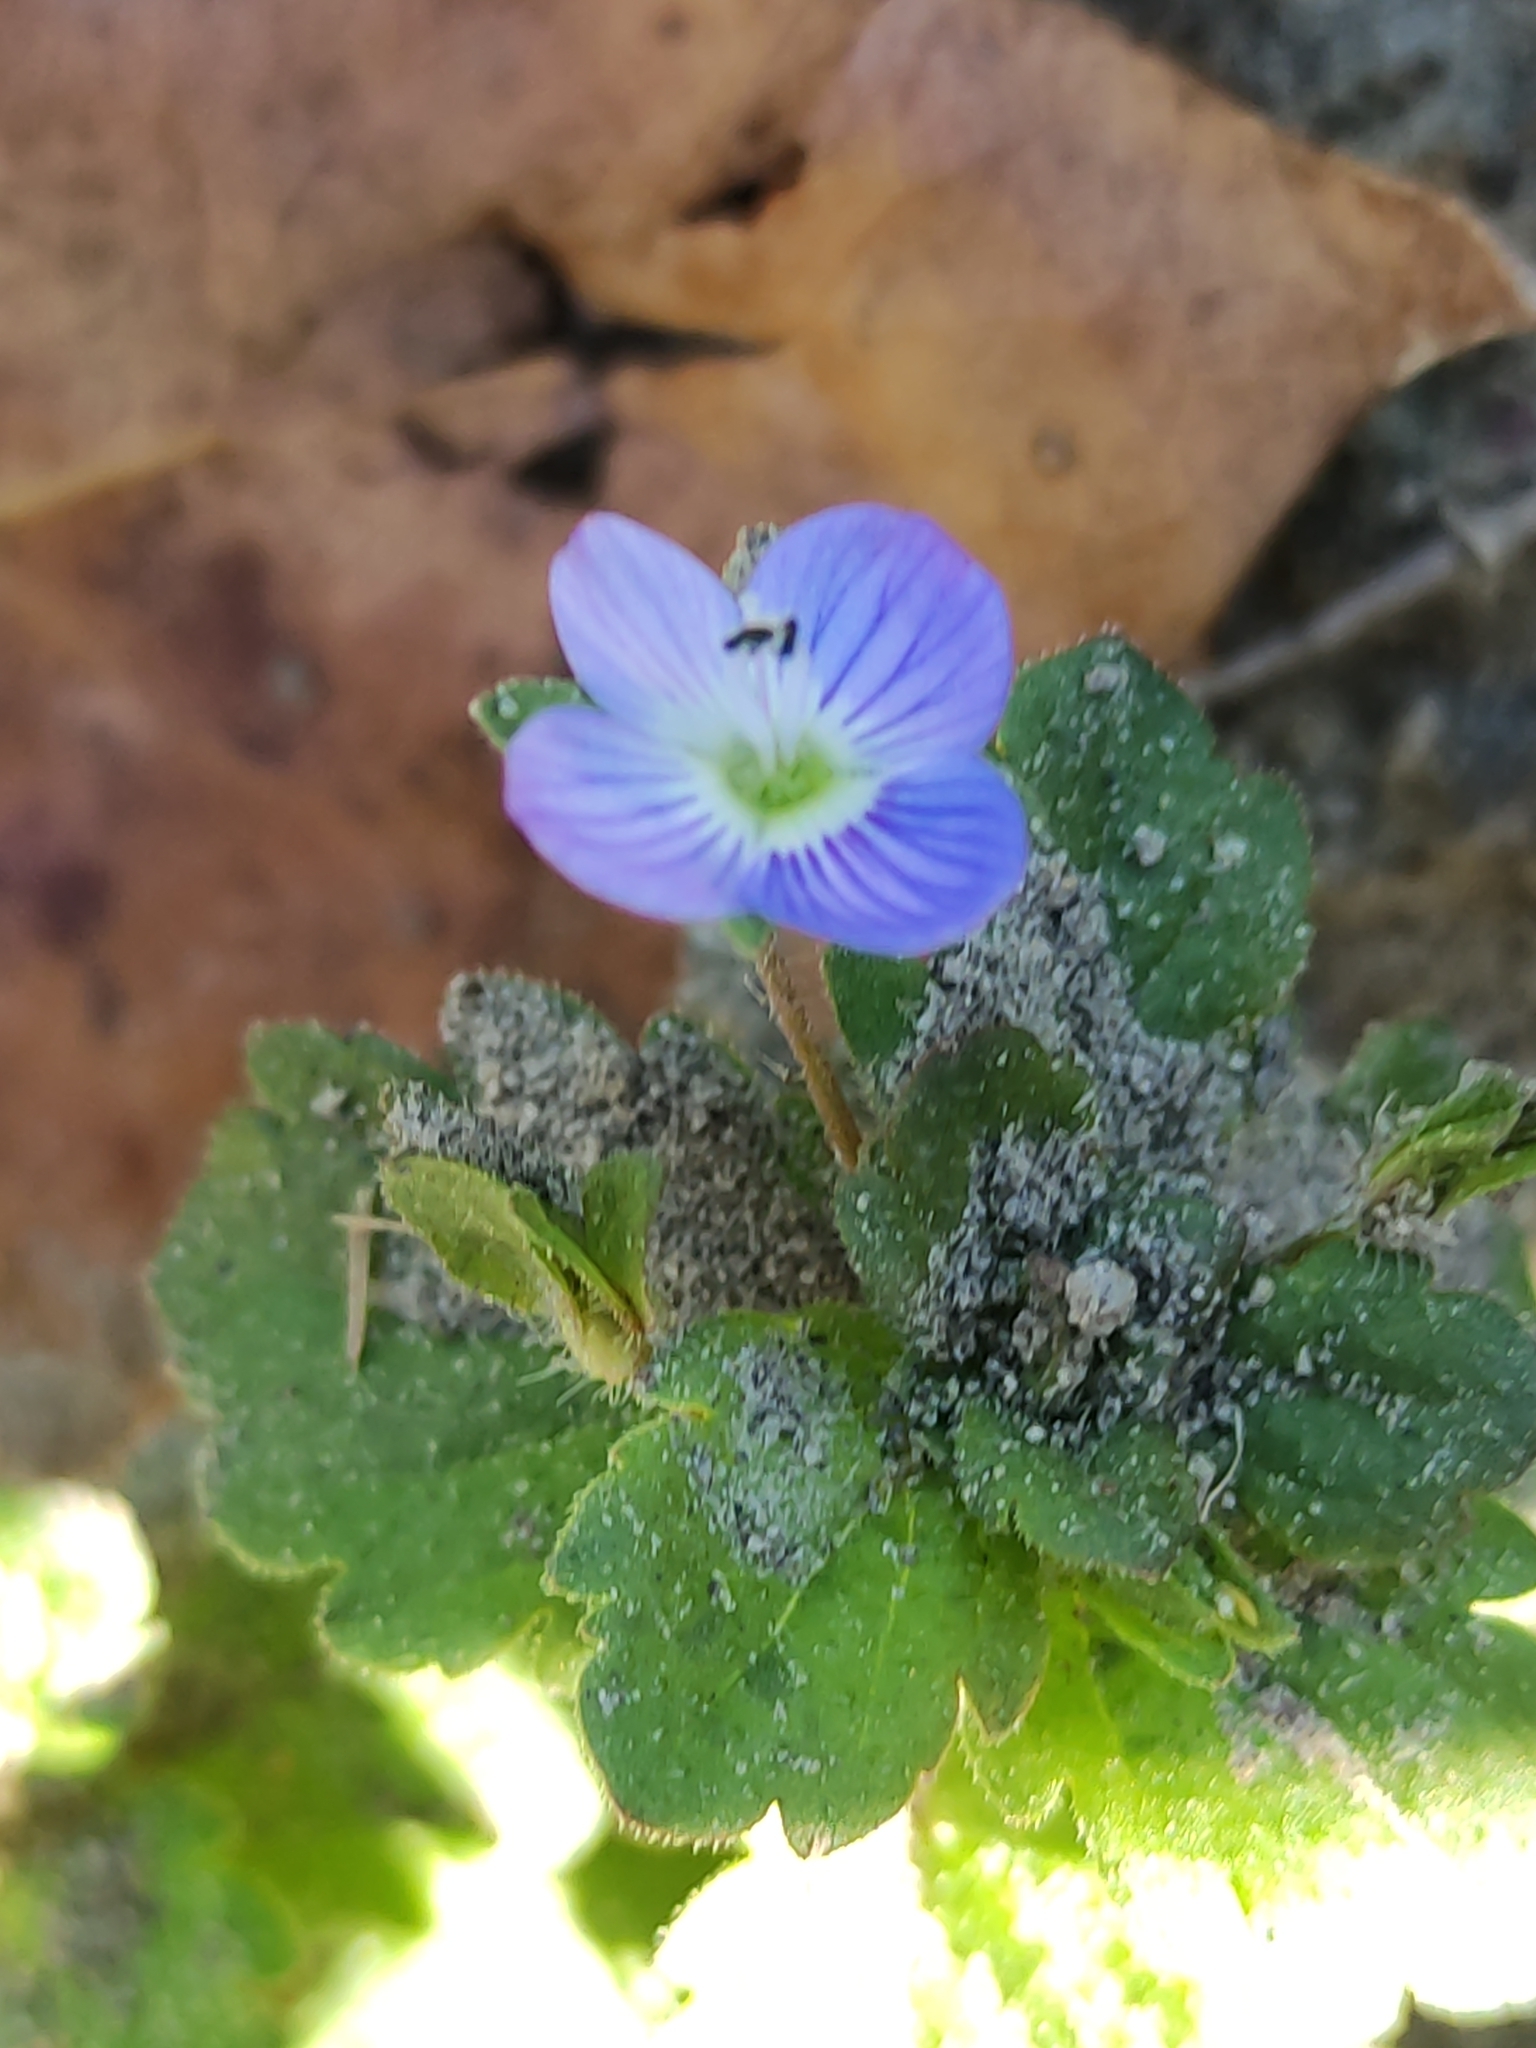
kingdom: Plantae
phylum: Tracheophyta
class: Magnoliopsida
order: Lamiales
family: Plantaginaceae
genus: Veronica
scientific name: Veronica persica
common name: Common field-speedwell
